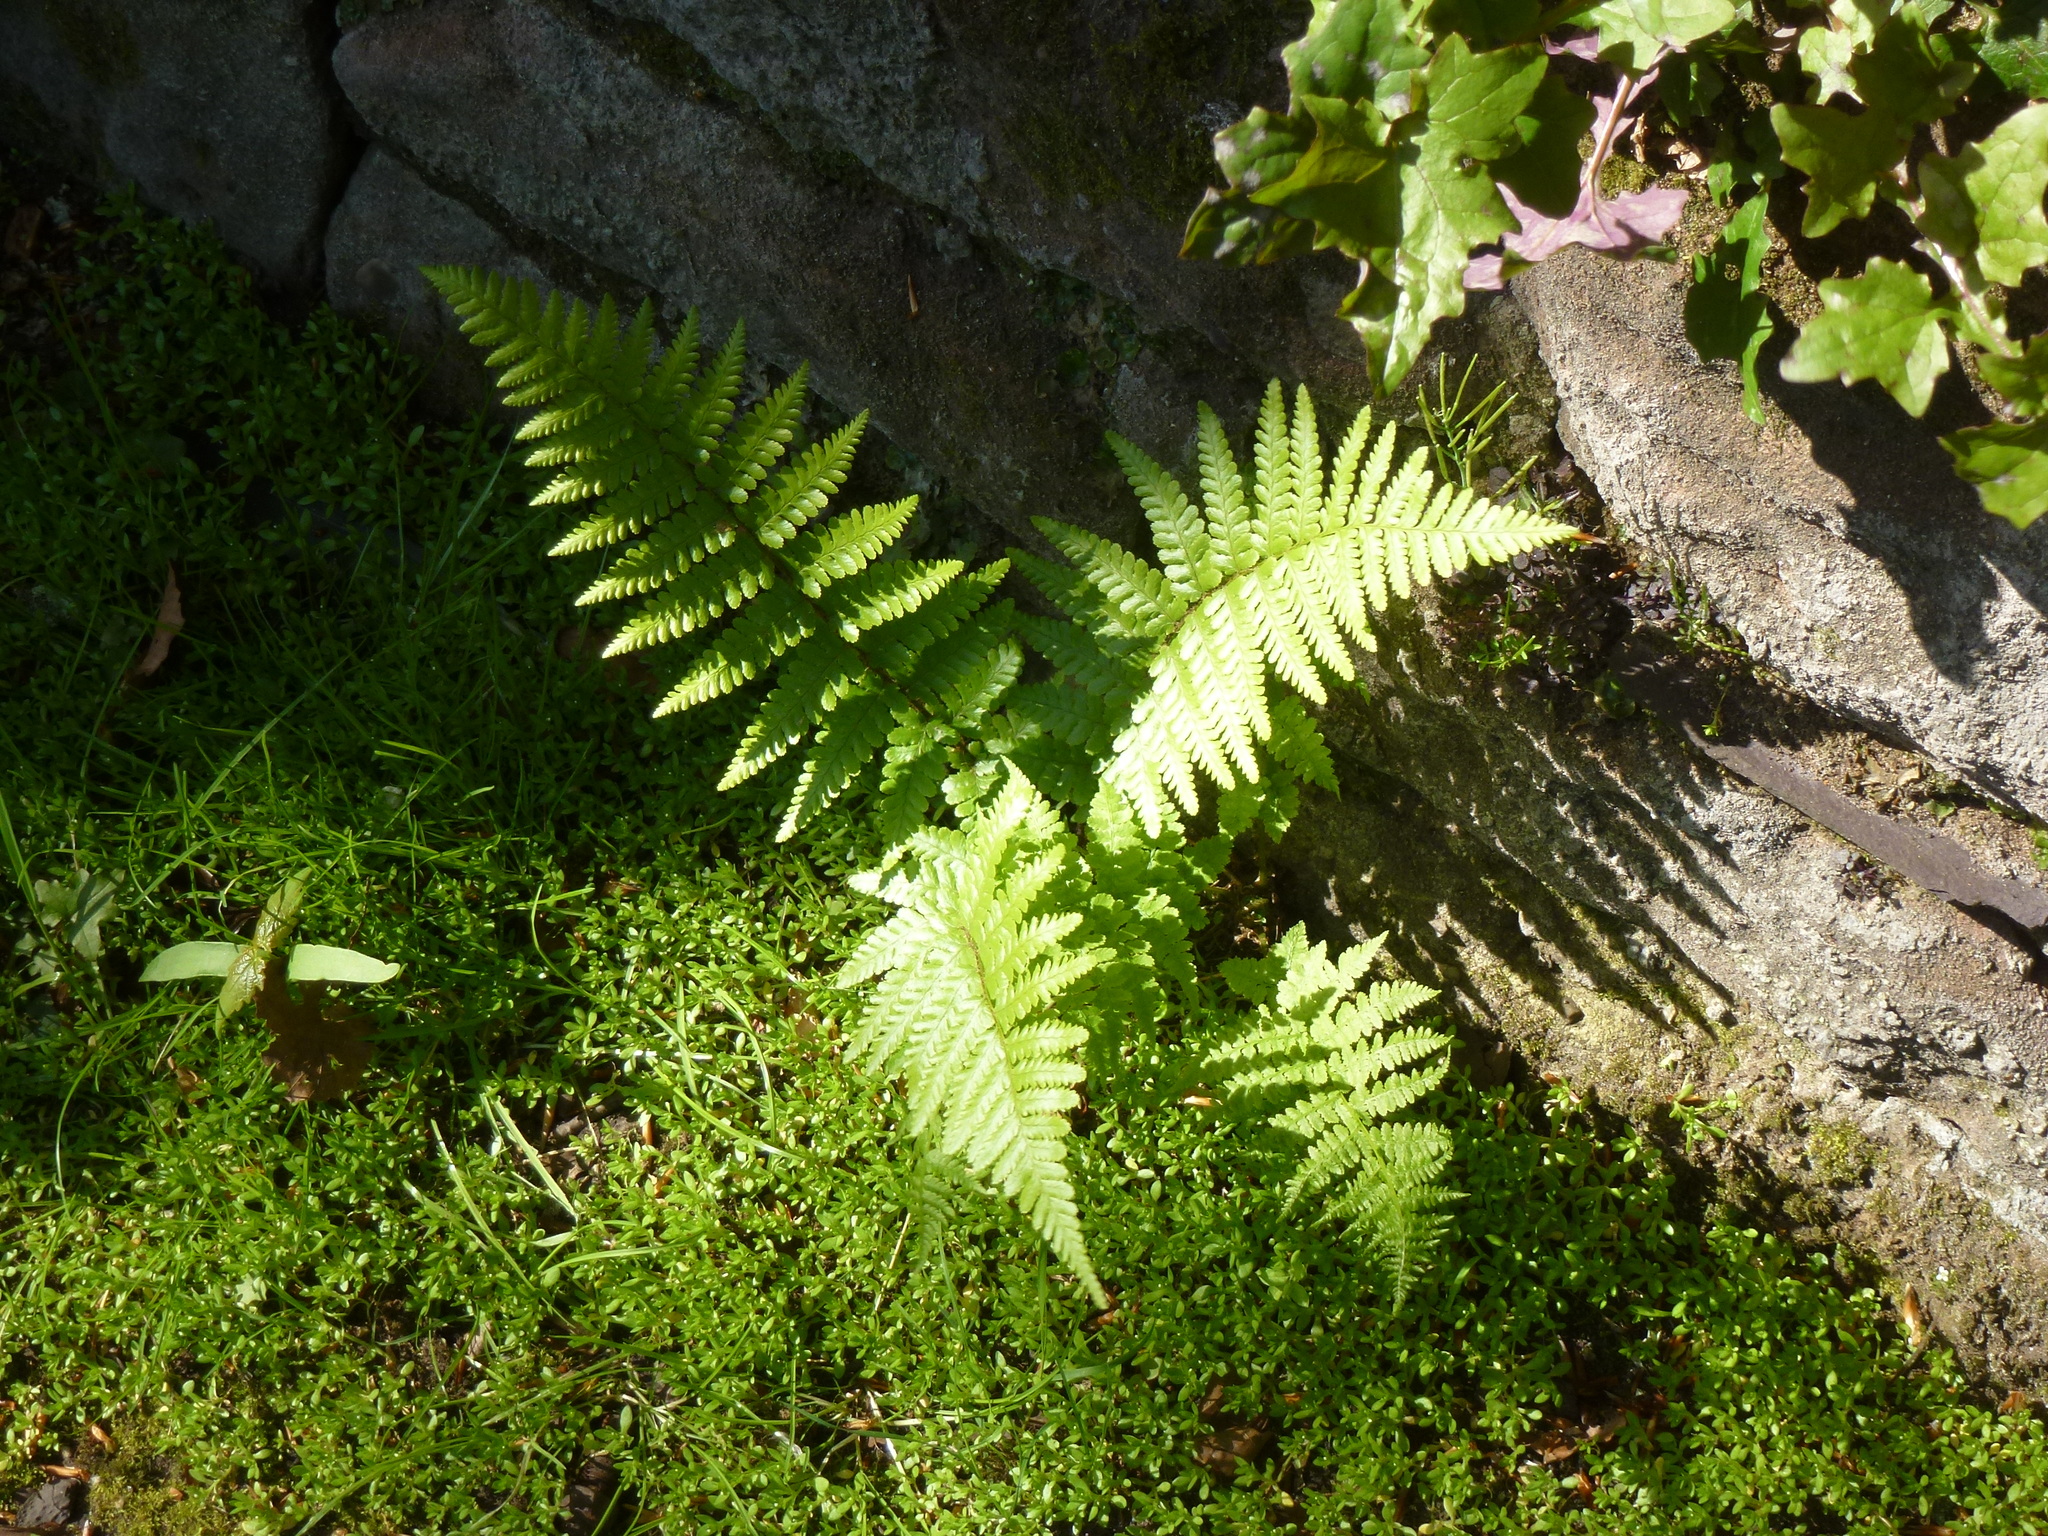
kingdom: Plantae
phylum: Tracheophyta
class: Polypodiopsida
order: Polypodiales
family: Dryopteridaceae
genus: Dryopteris
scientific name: Dryopteris filix-mas
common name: Male fern
